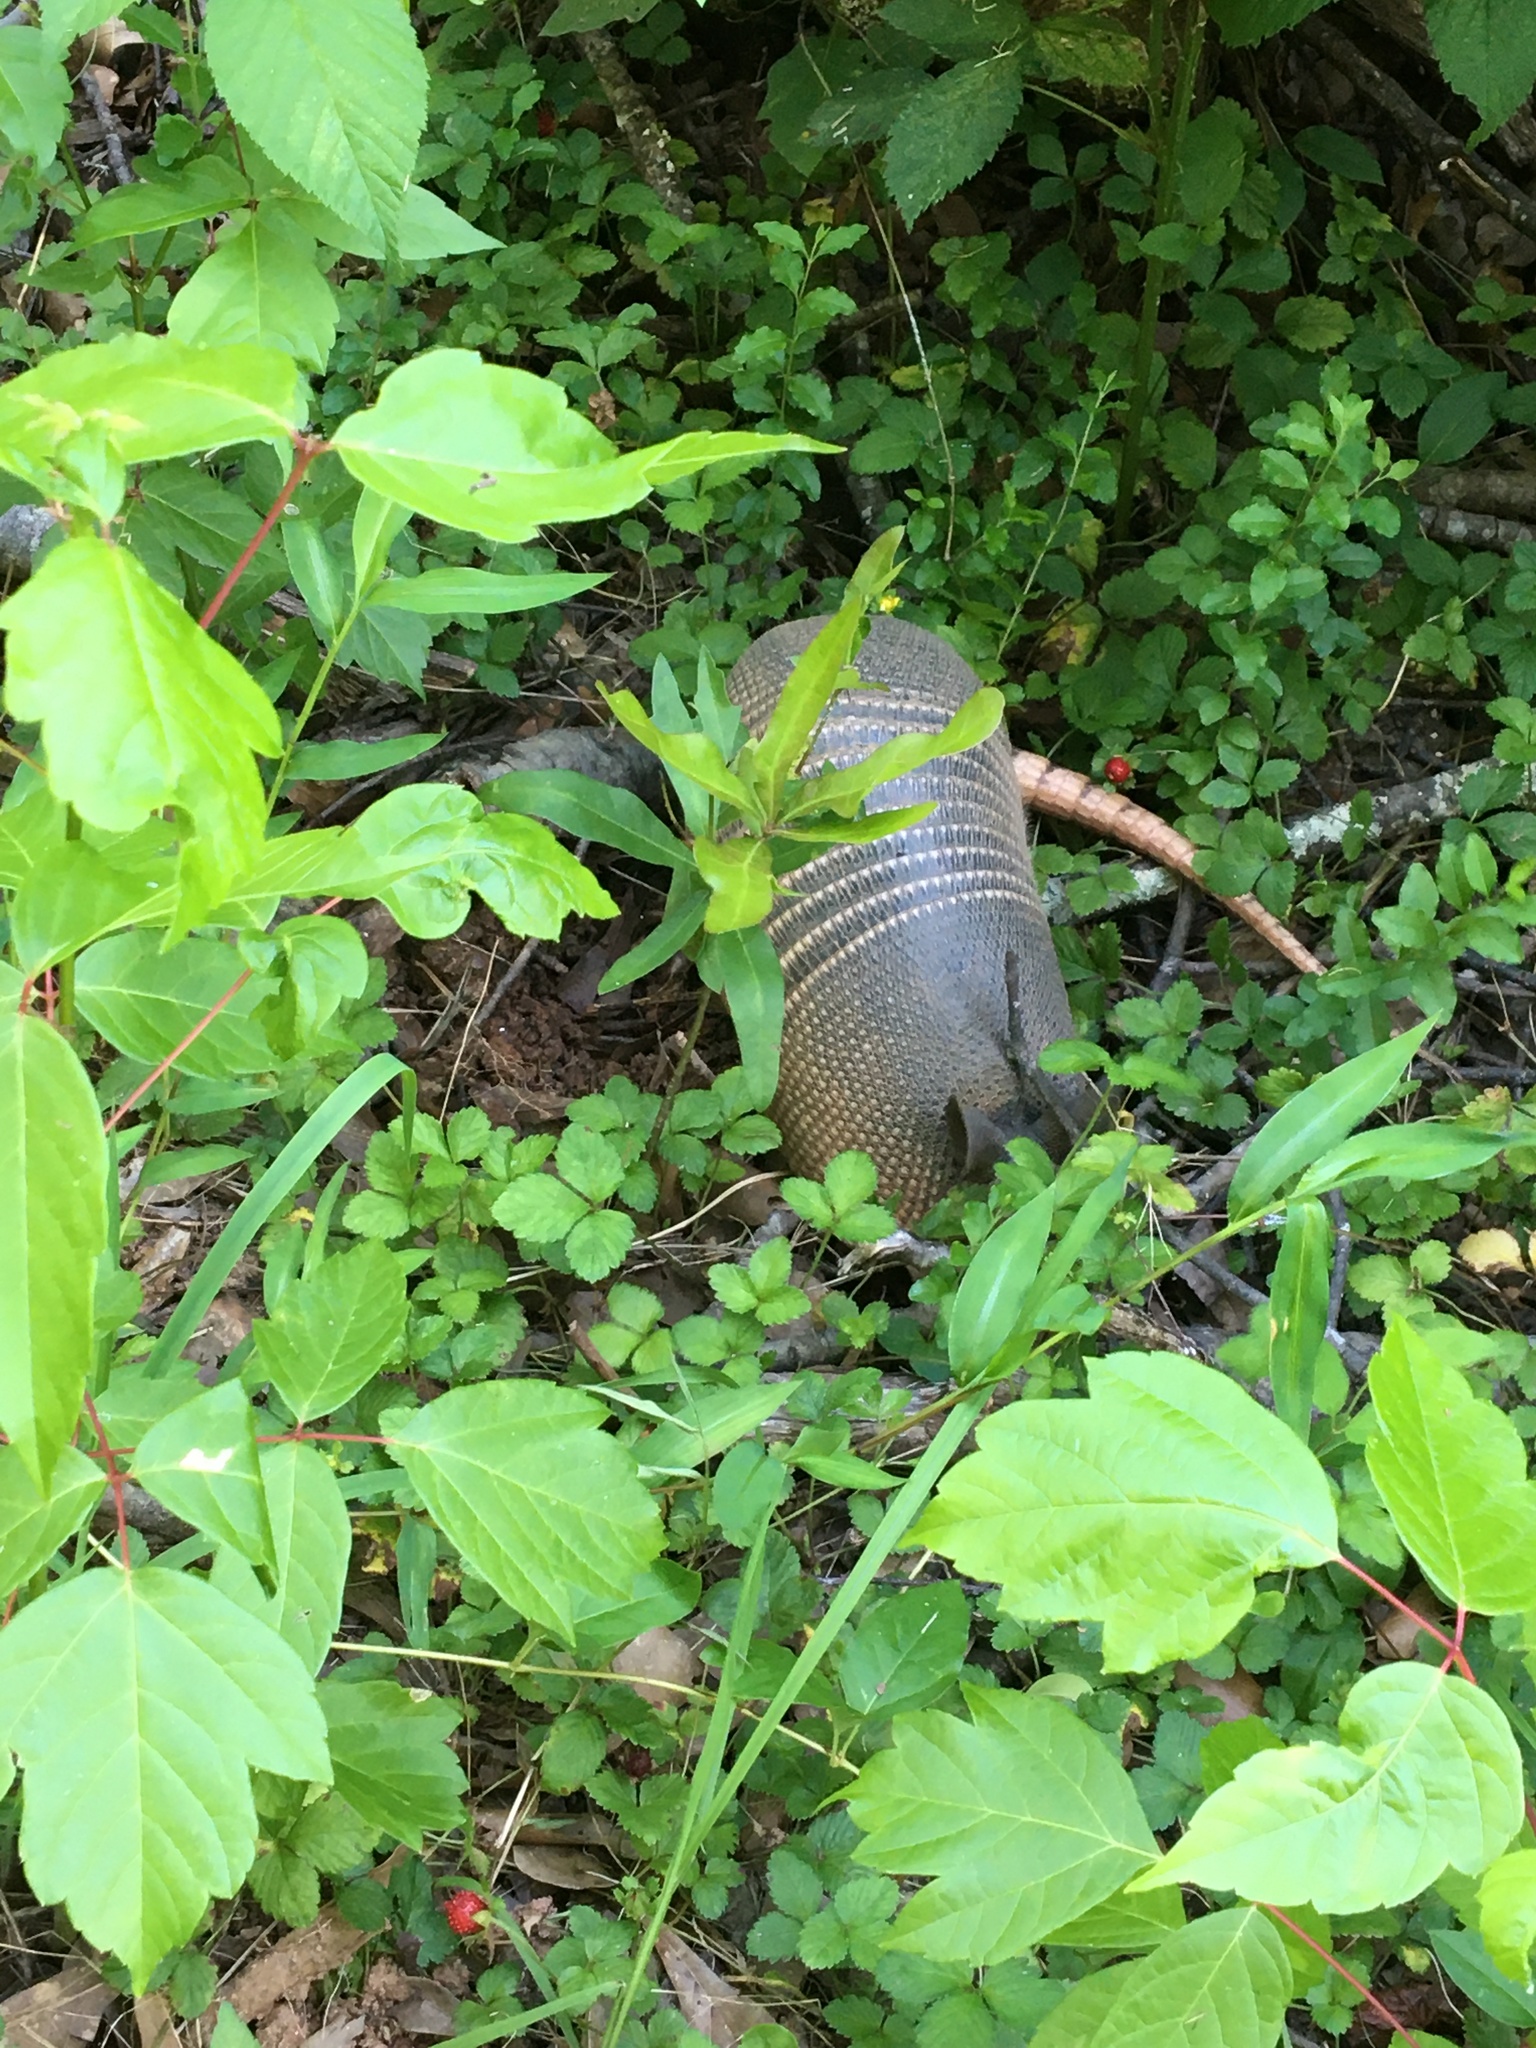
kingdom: Animalia
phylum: Chordata
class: Mammalia
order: Cingulata
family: Dasypodidae
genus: Dasypus
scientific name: Dasypus novemcinctus
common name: Nine-banded armadillo
